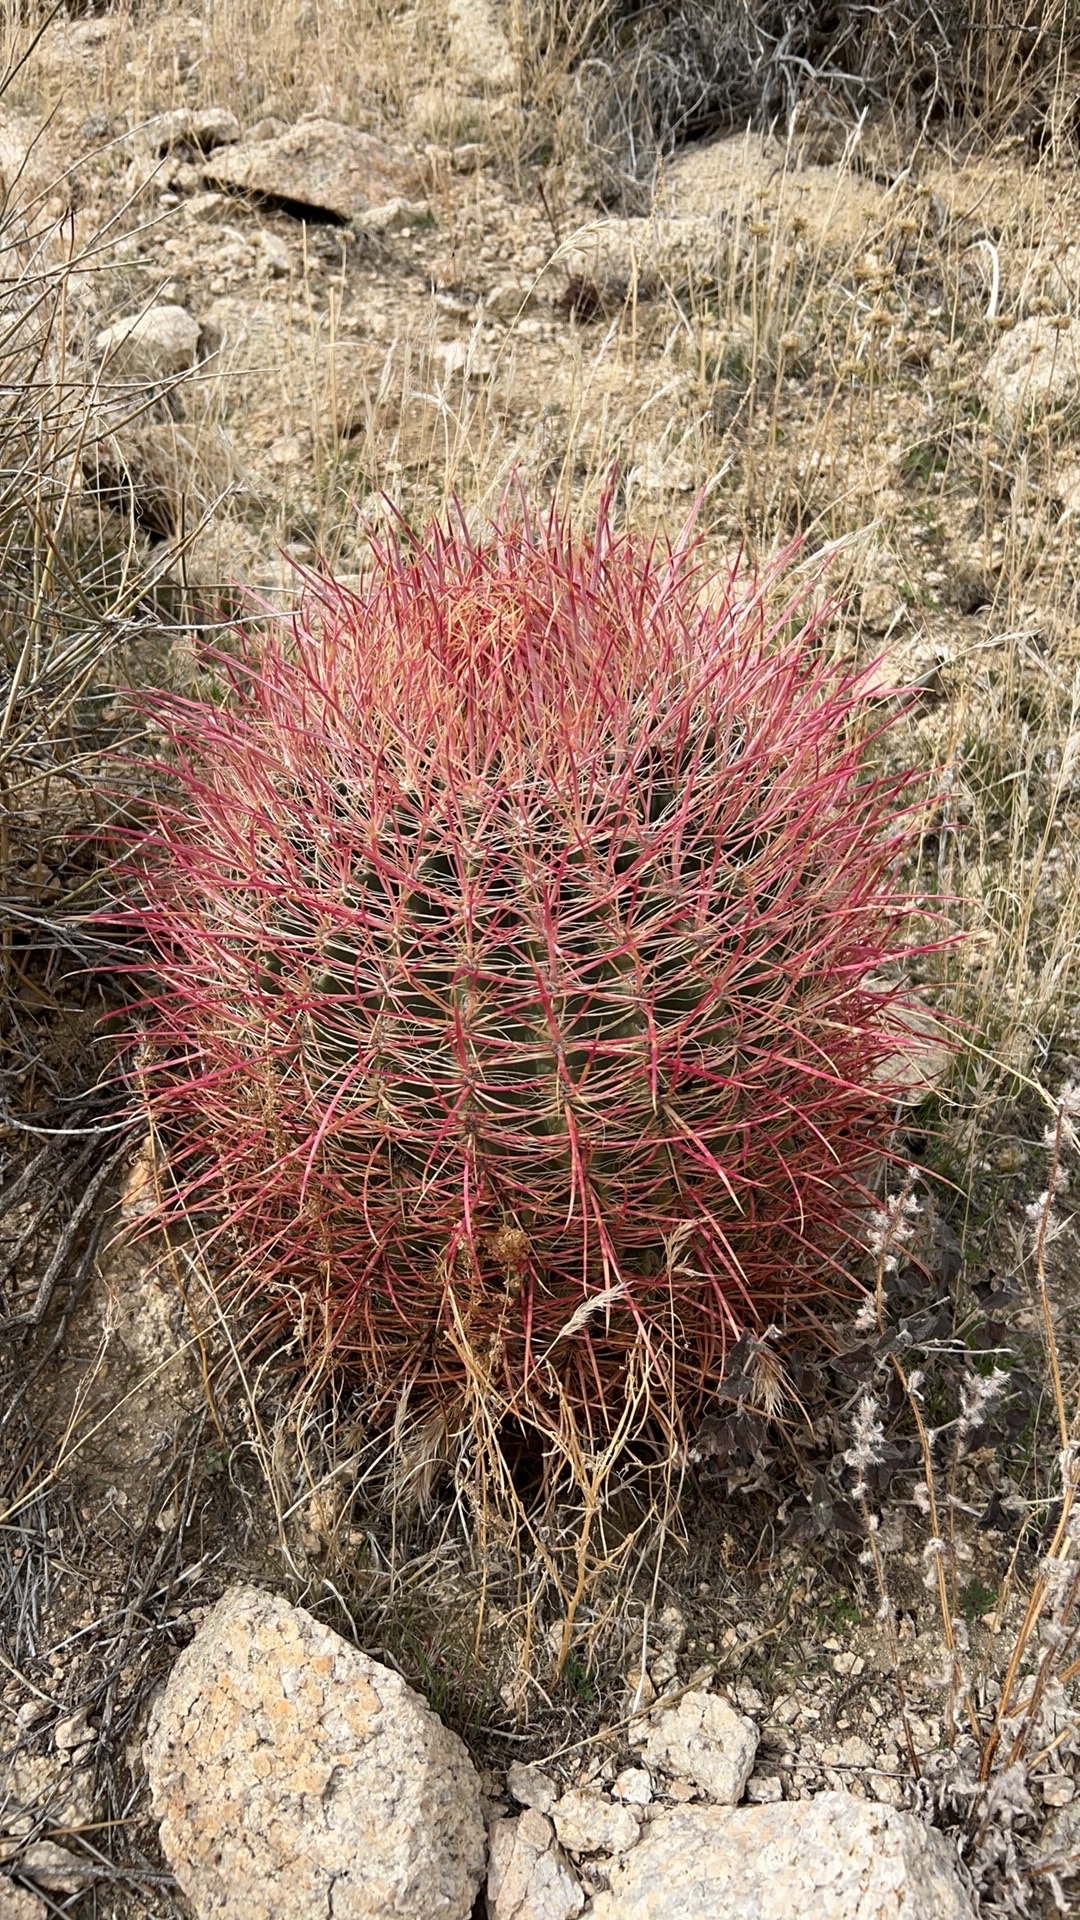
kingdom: Plantae
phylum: Tracheophyta
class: Magnoliopsida
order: Caryophyllales
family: Cactaceae
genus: Ferocactus
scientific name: Ferocactus cylindraceus
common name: California barrel cactus
